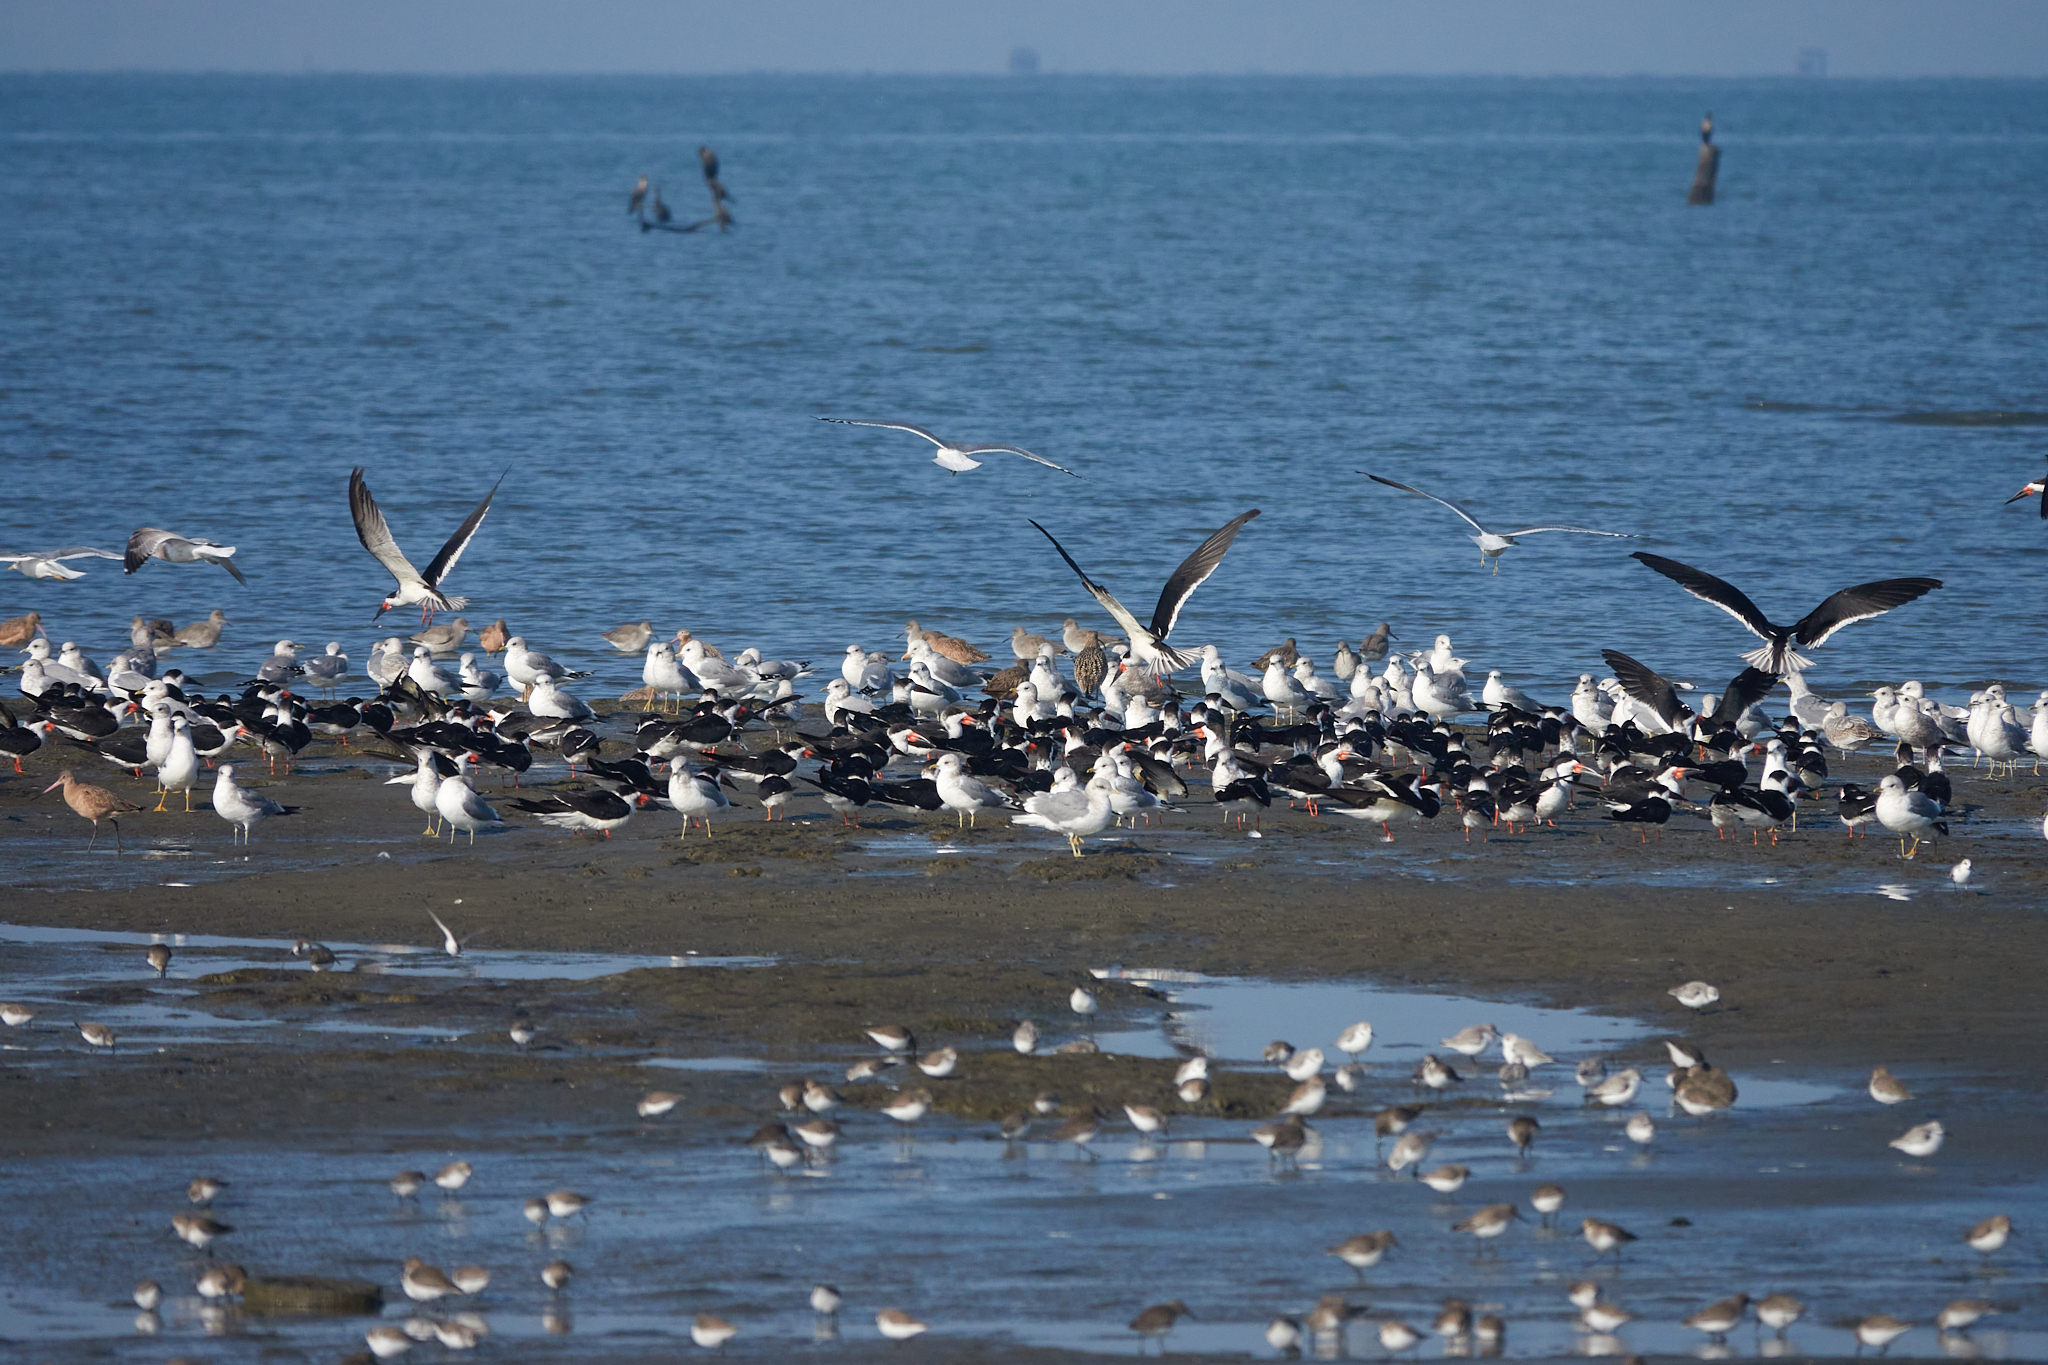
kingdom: Animalia
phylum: Chordata
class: Aves
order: Charadriiformes
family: Laridae
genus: Rynchops
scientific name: Rynchops niger
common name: Black skimmer
